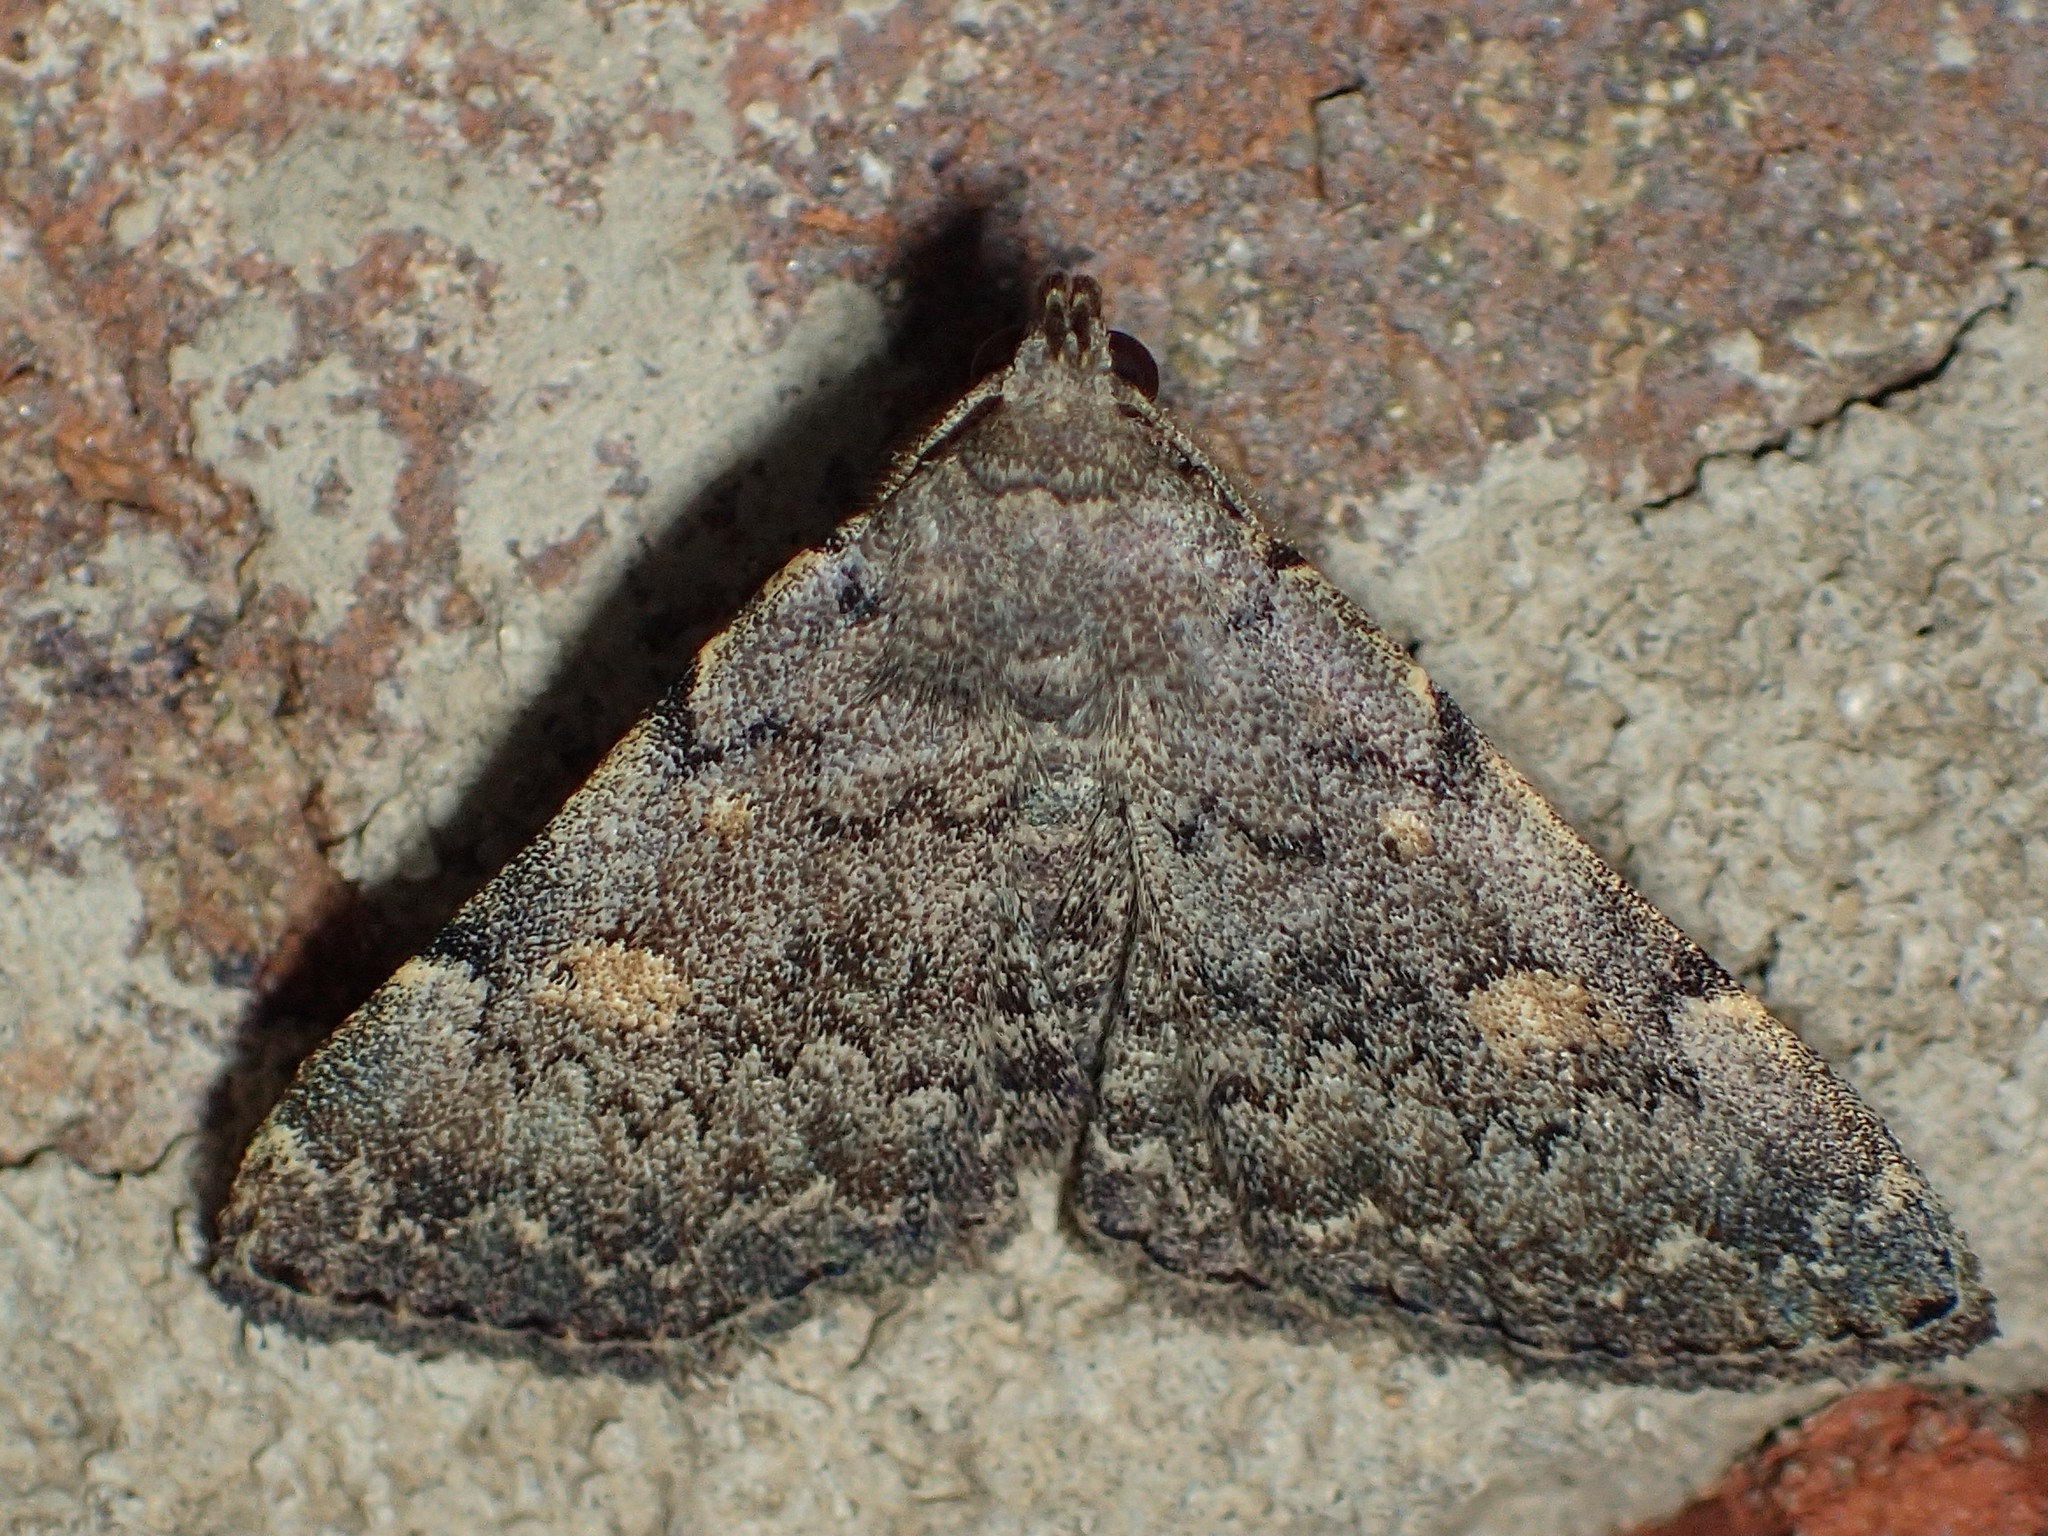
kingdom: Animalia
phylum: Arthropoda
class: Insecta
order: Lepidoptera
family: Erebidae
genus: Idia
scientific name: Idia aemula
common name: Common idia moth
